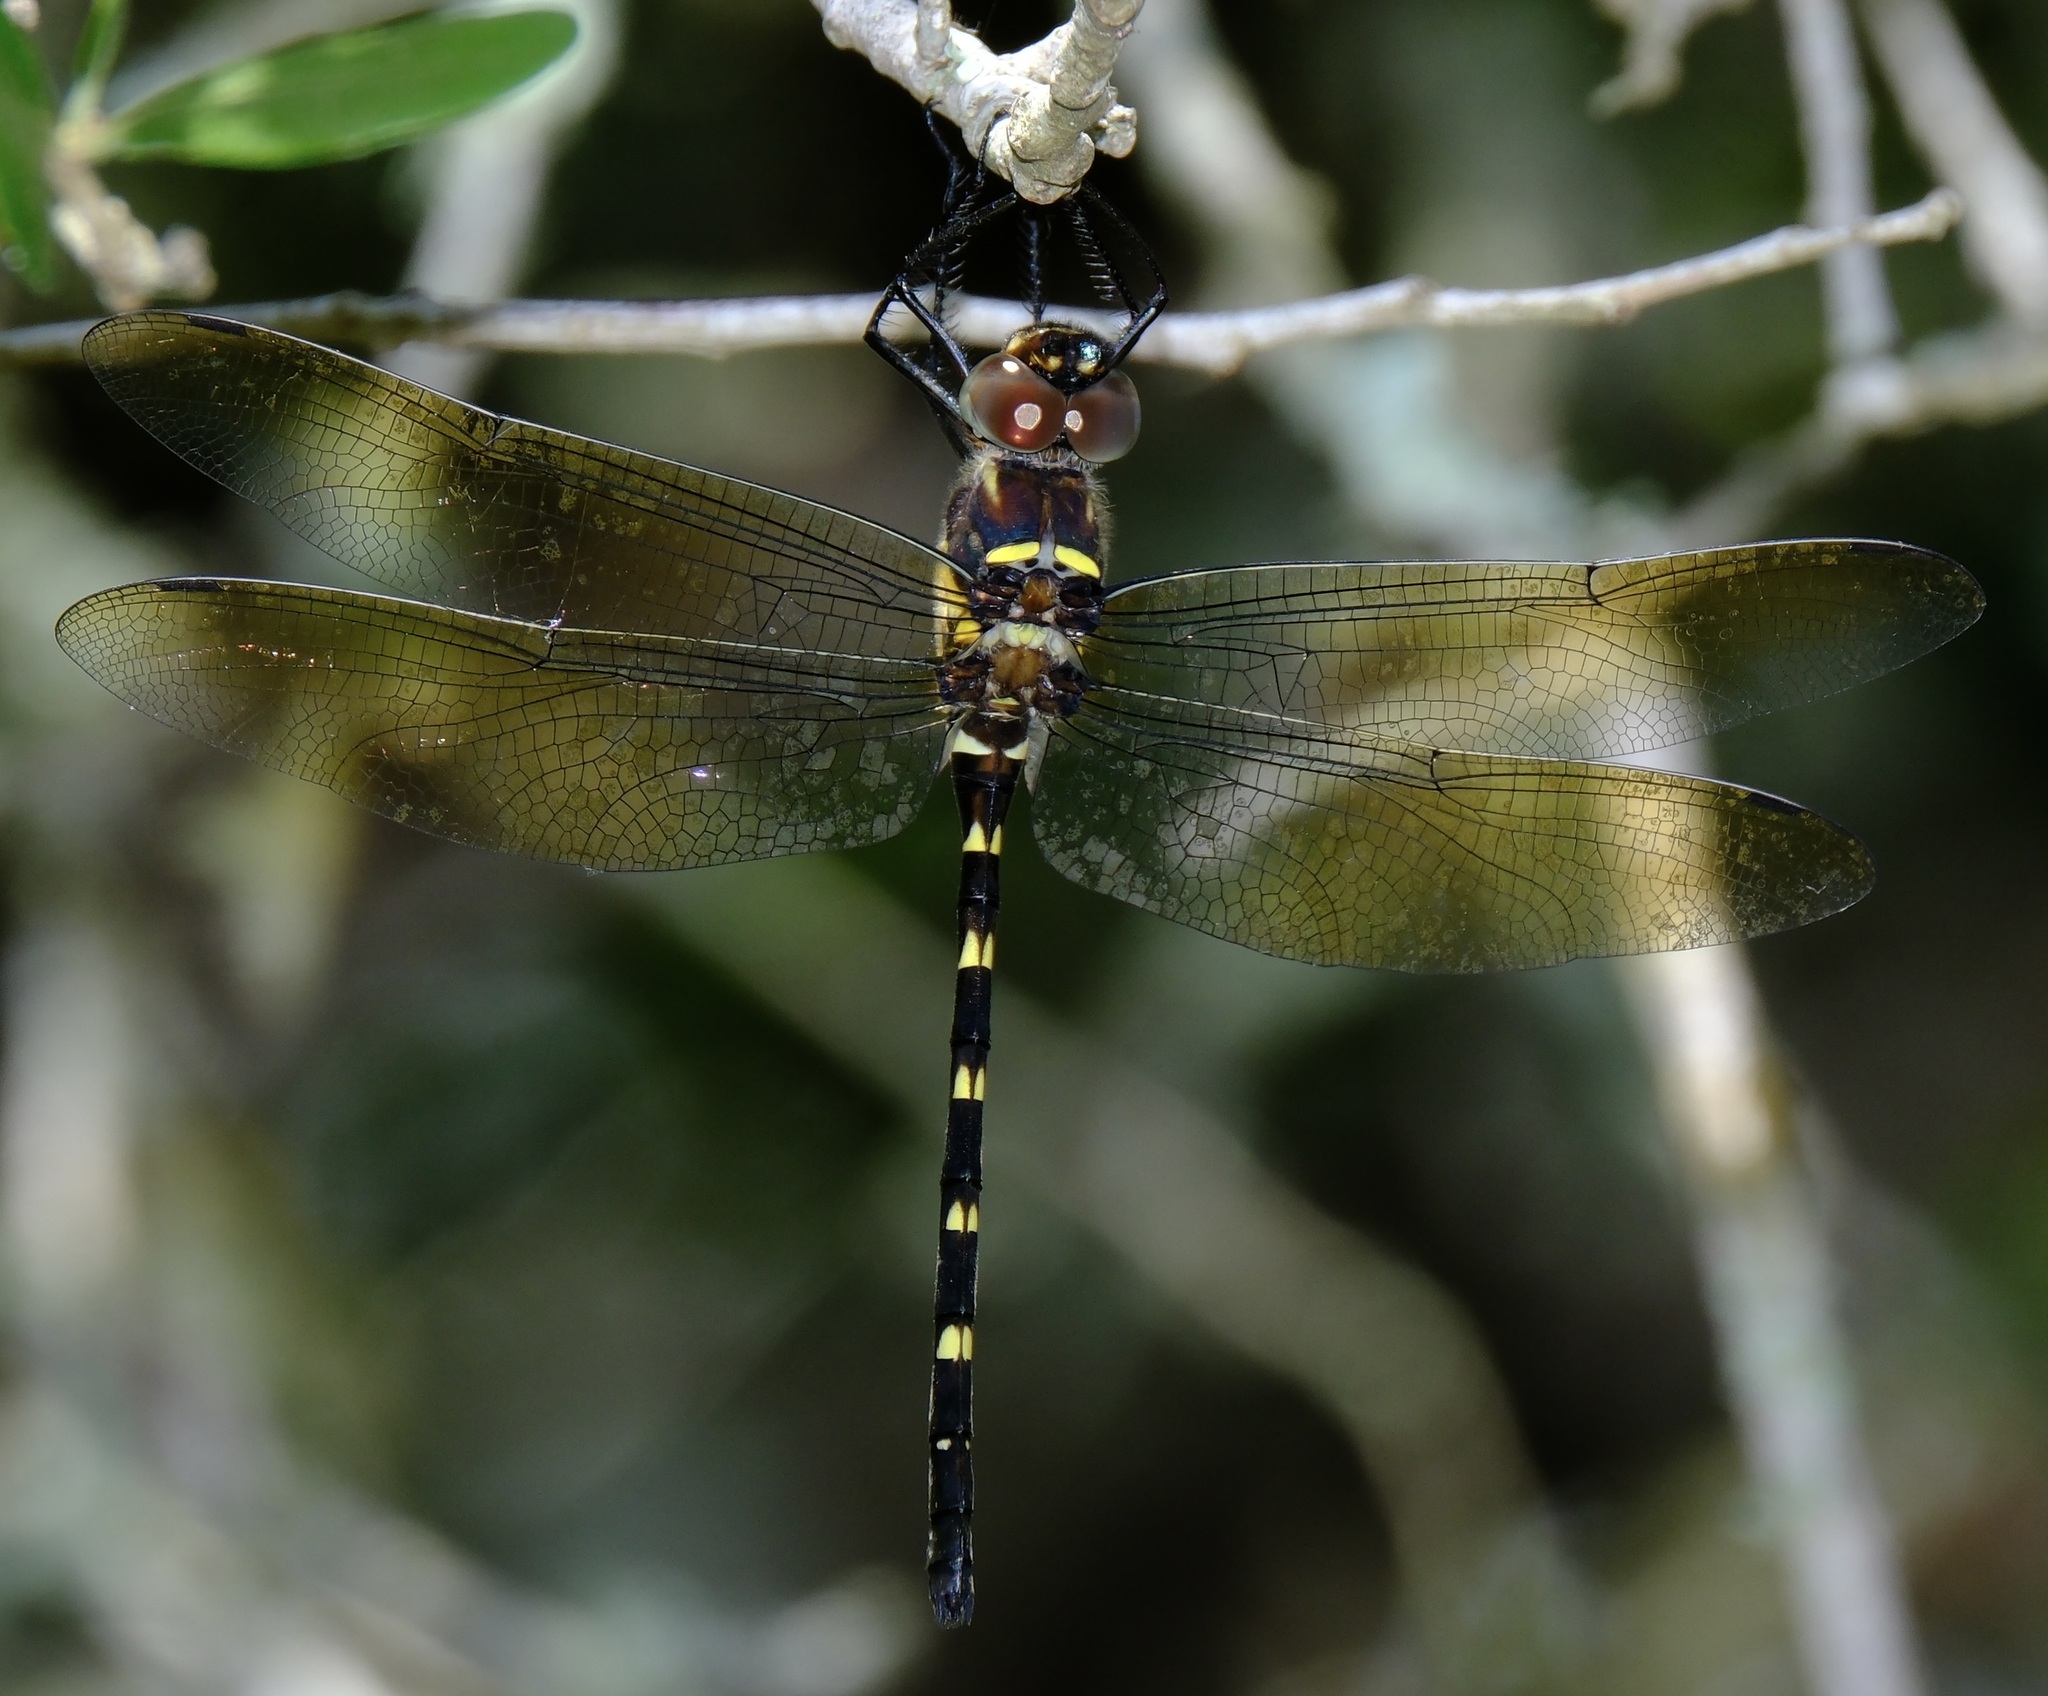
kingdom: Animalia
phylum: Arthropoda
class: Insecta
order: Odonata
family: Macromiidae
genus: Macromia
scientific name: Macromia taeniolata
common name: Royal river cruiser
